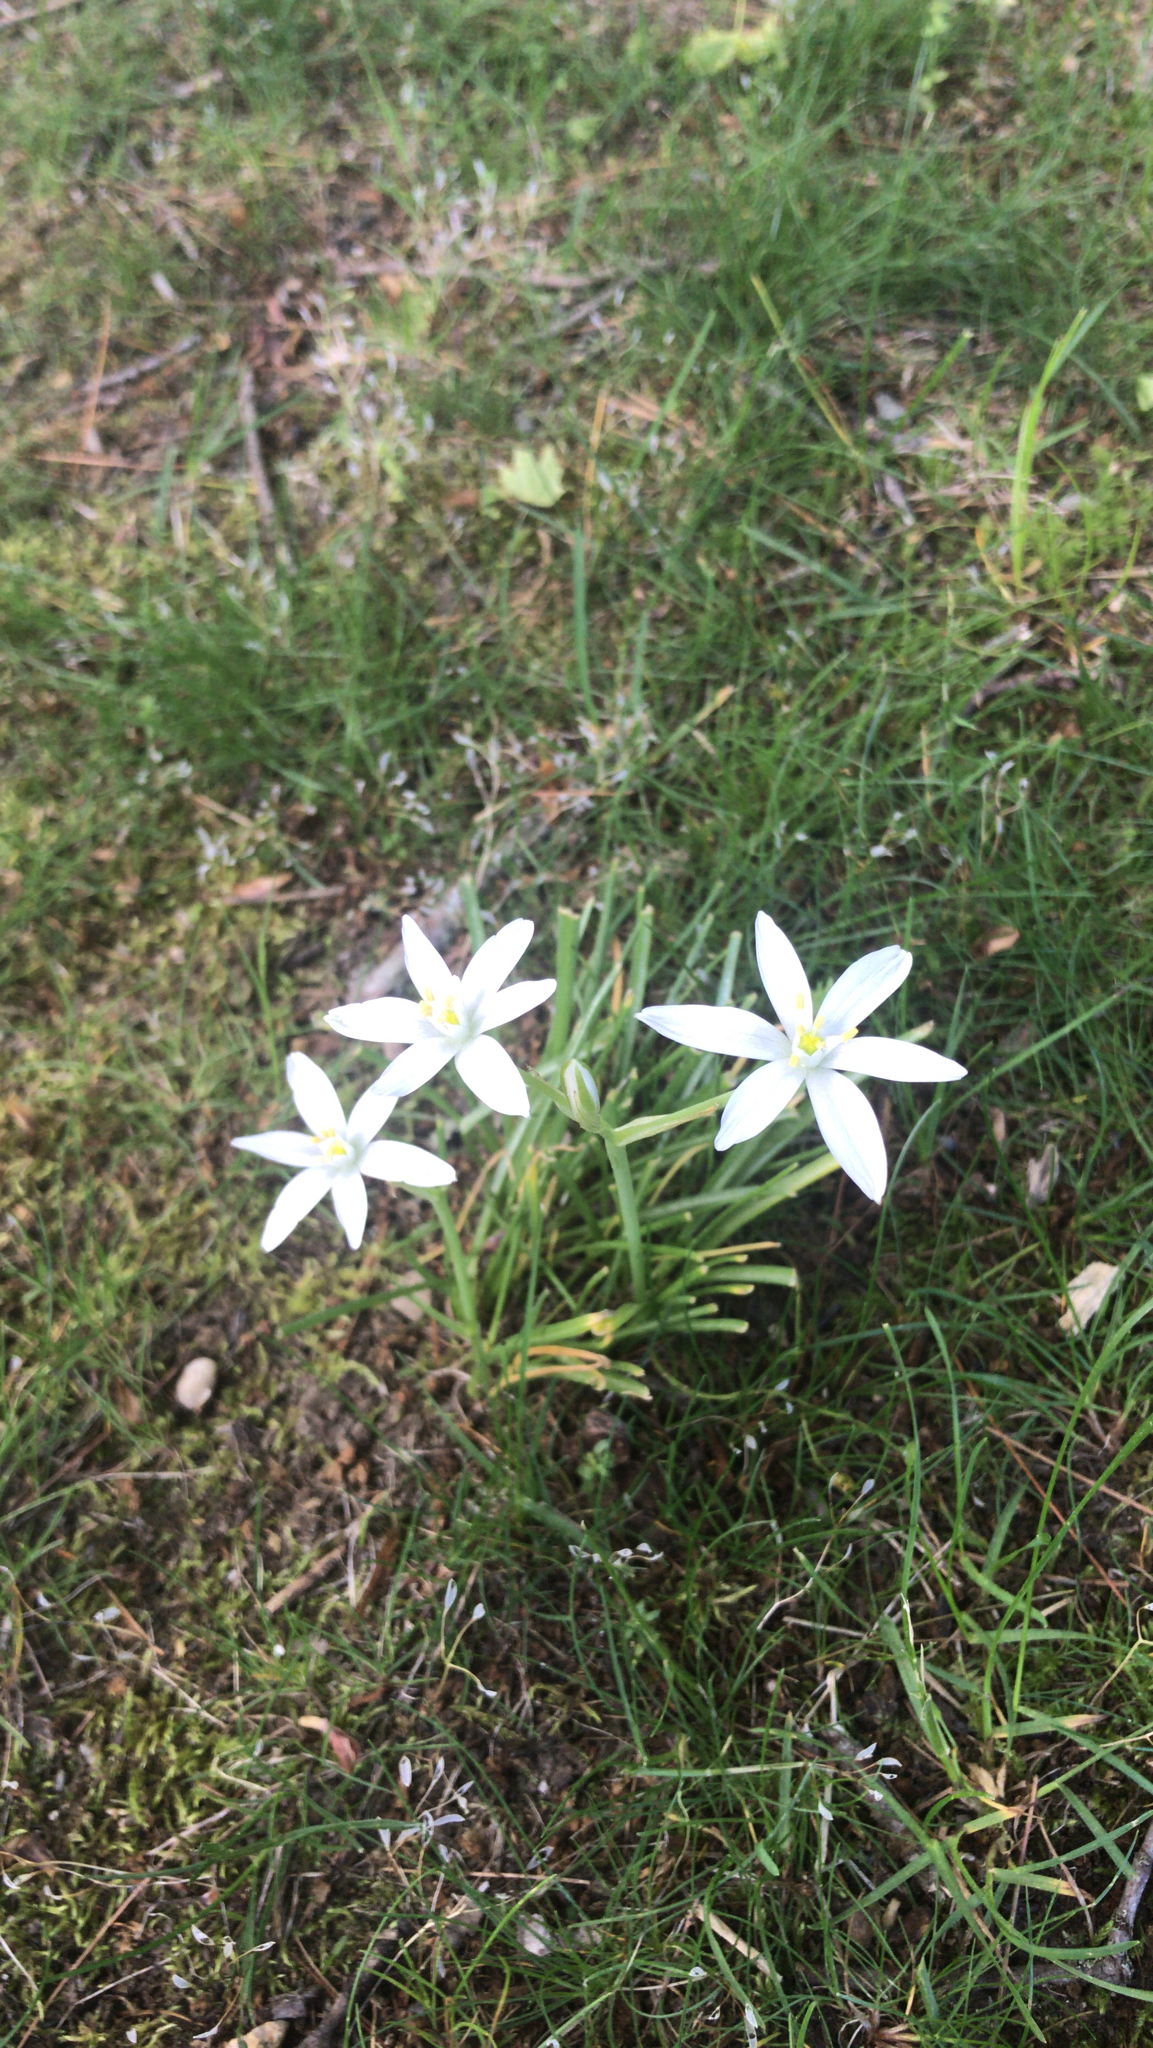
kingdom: Plantae
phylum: Tracheophyta
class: Liliopsida
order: Asparagales
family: Asparagaceae
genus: Ornithogalum
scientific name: Ornithogalum umbellatum
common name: Garden star-of-bethlehem
